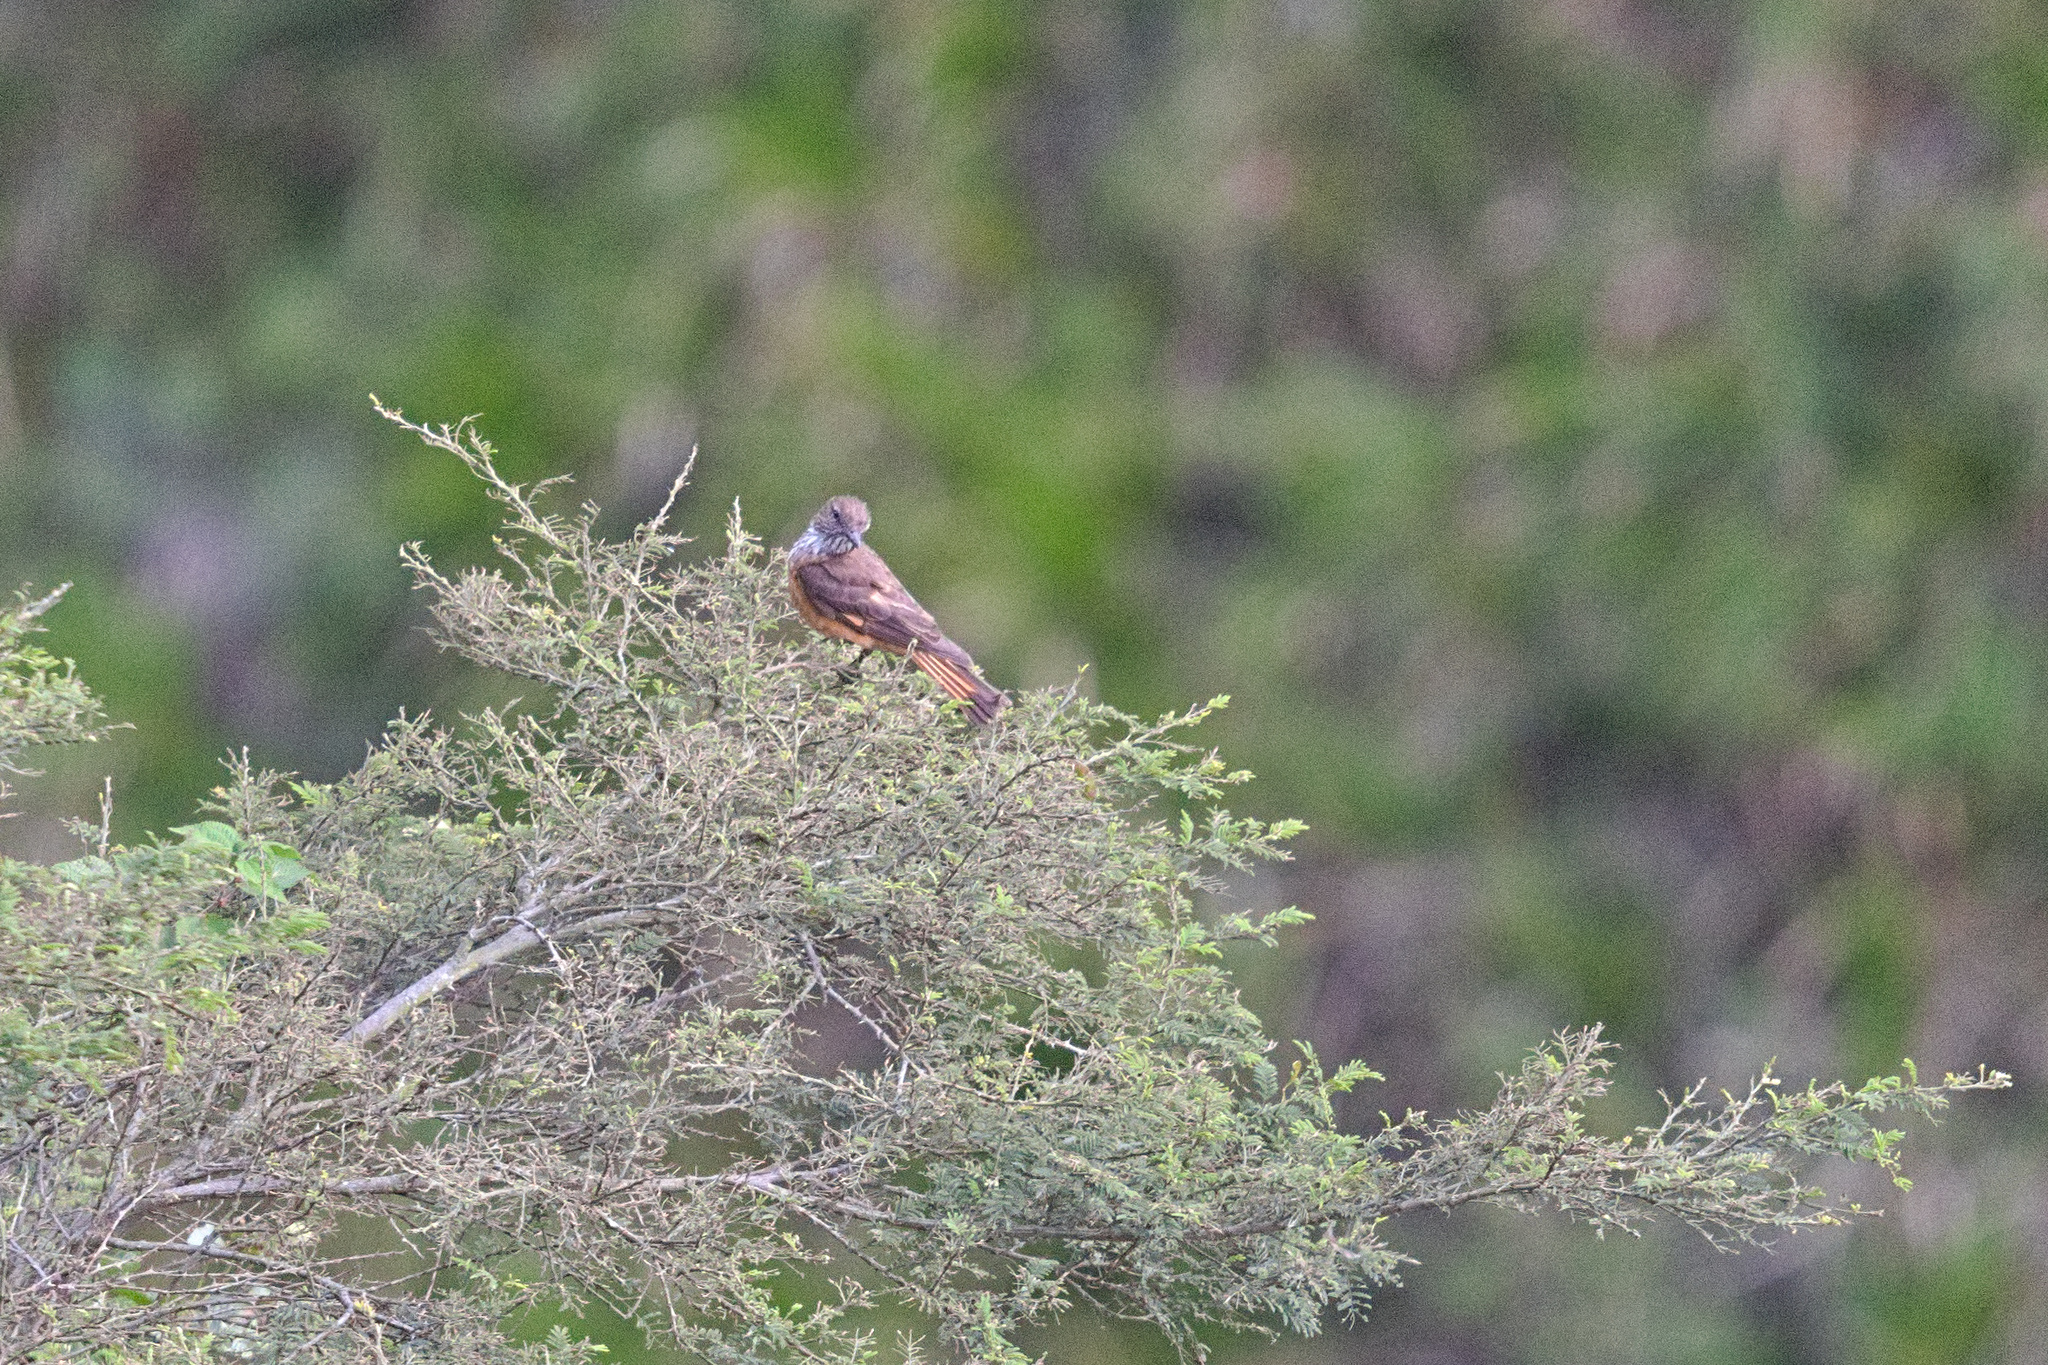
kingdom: Animalia
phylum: Chordata
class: Aves
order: Passeriformes
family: Tyrannidae
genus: Myiotheretes
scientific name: Myiotheretes striaticollis
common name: Streak-throated bush tyrant
